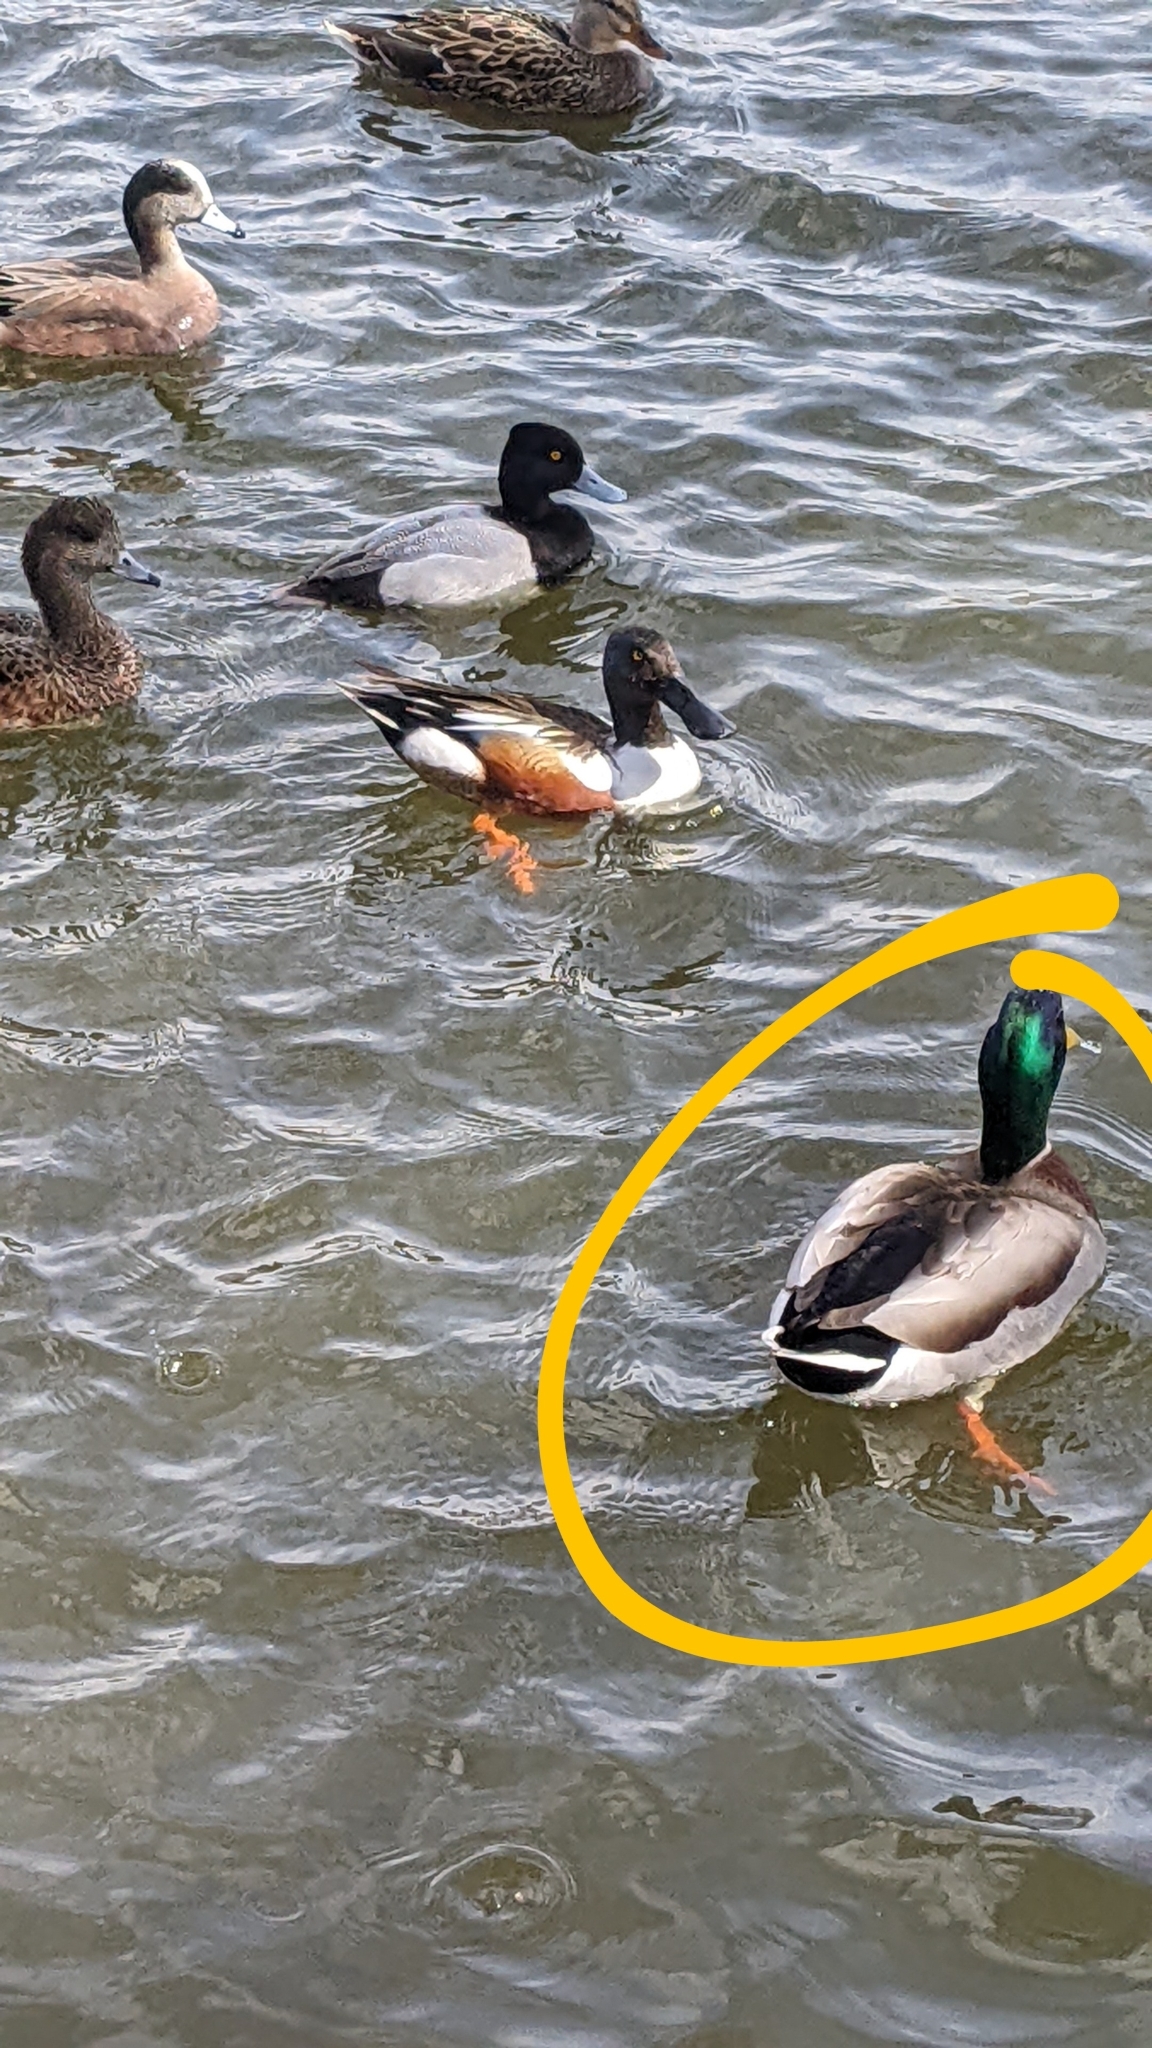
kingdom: Animalia
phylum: Chordata
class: Aves
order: Anseriformes
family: Anatidae
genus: Anas
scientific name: Anas platyrhynchos
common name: Mallard
